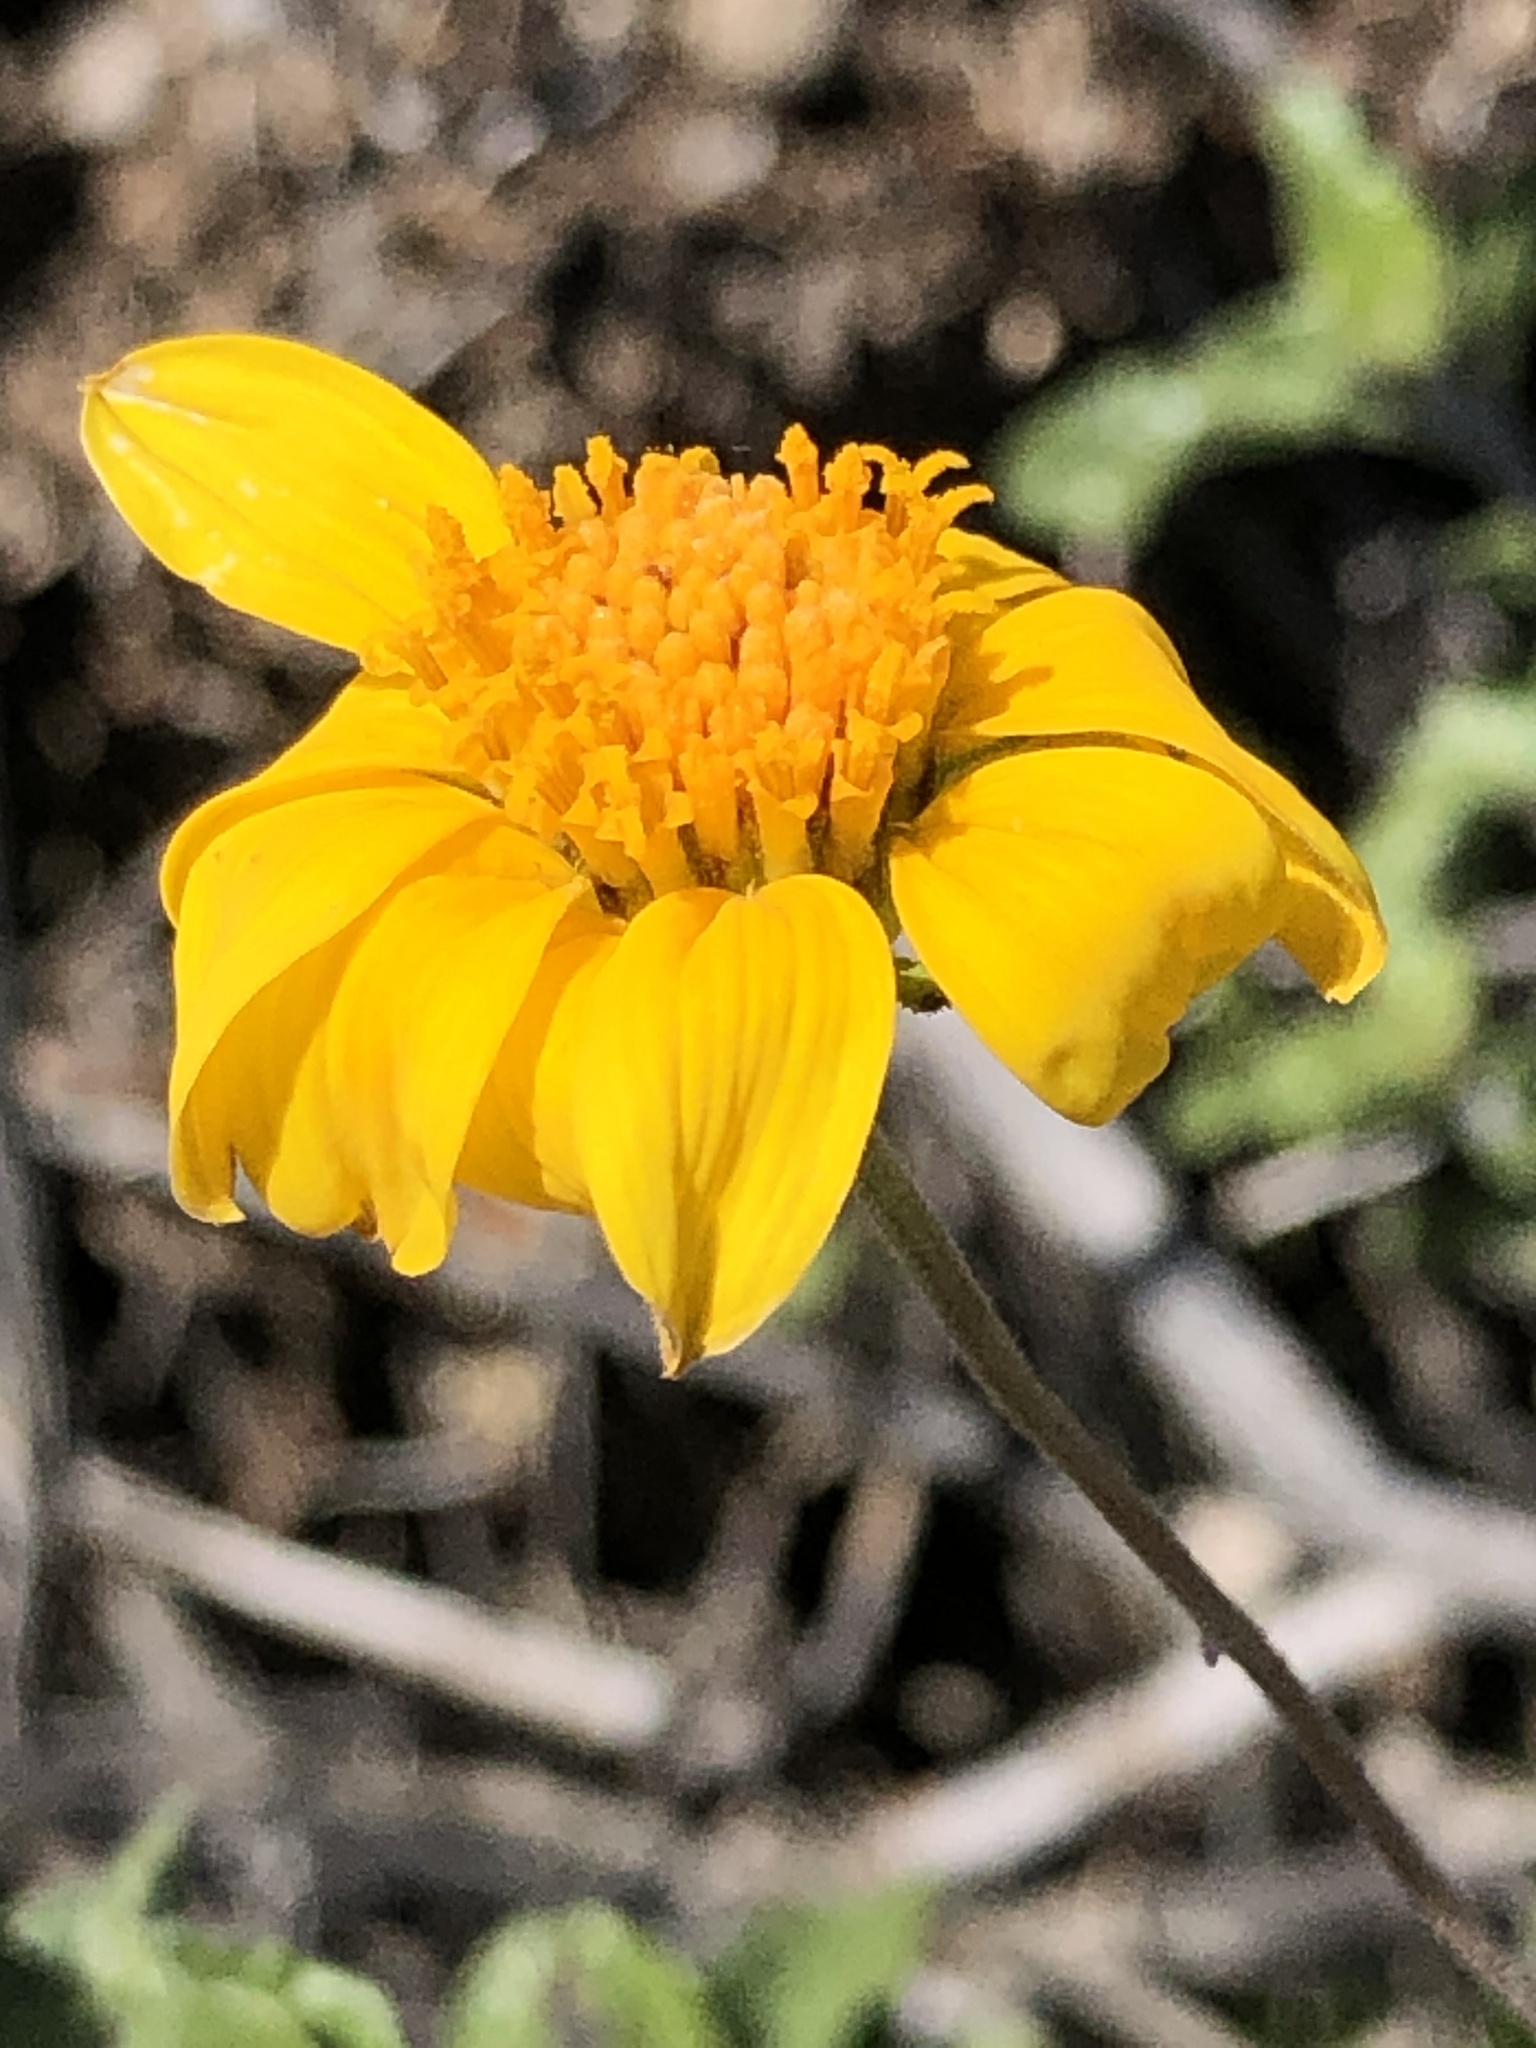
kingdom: Plantae
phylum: Tracheophyta
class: Magnoliopsida
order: Asterales
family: Asteraceae
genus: Bahiopsis
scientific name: Bahiopsis parishii
